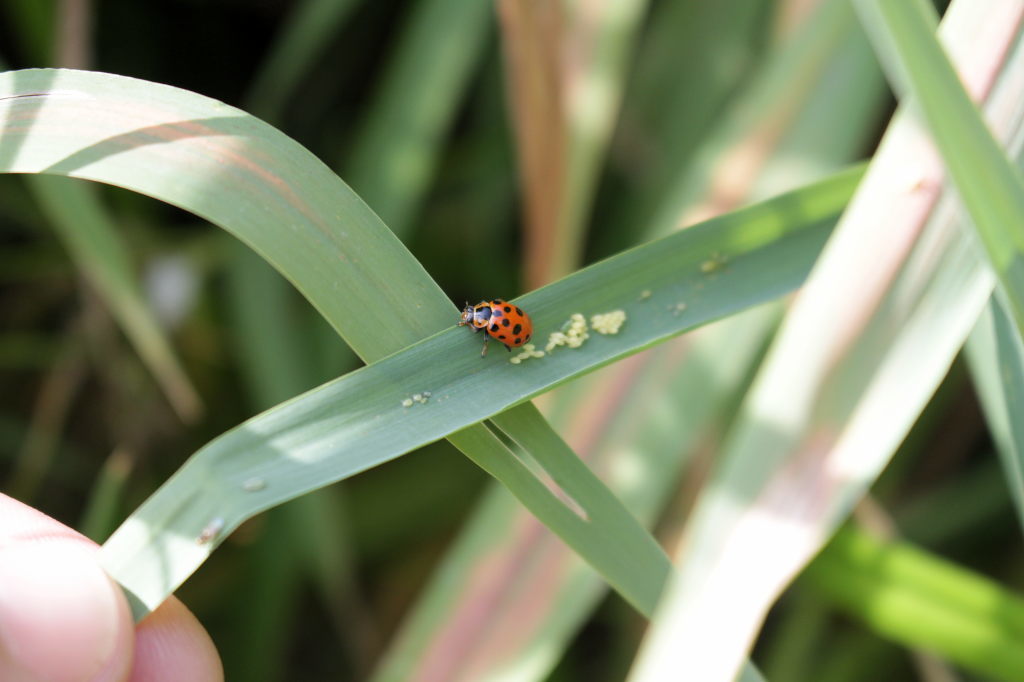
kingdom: Animalia
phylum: Arthropoda
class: Insecta
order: Coleoptera
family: Coccinellidae
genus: Hippodamia
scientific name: Hippodamia tredecimpunctata
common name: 13-spot ladybird
